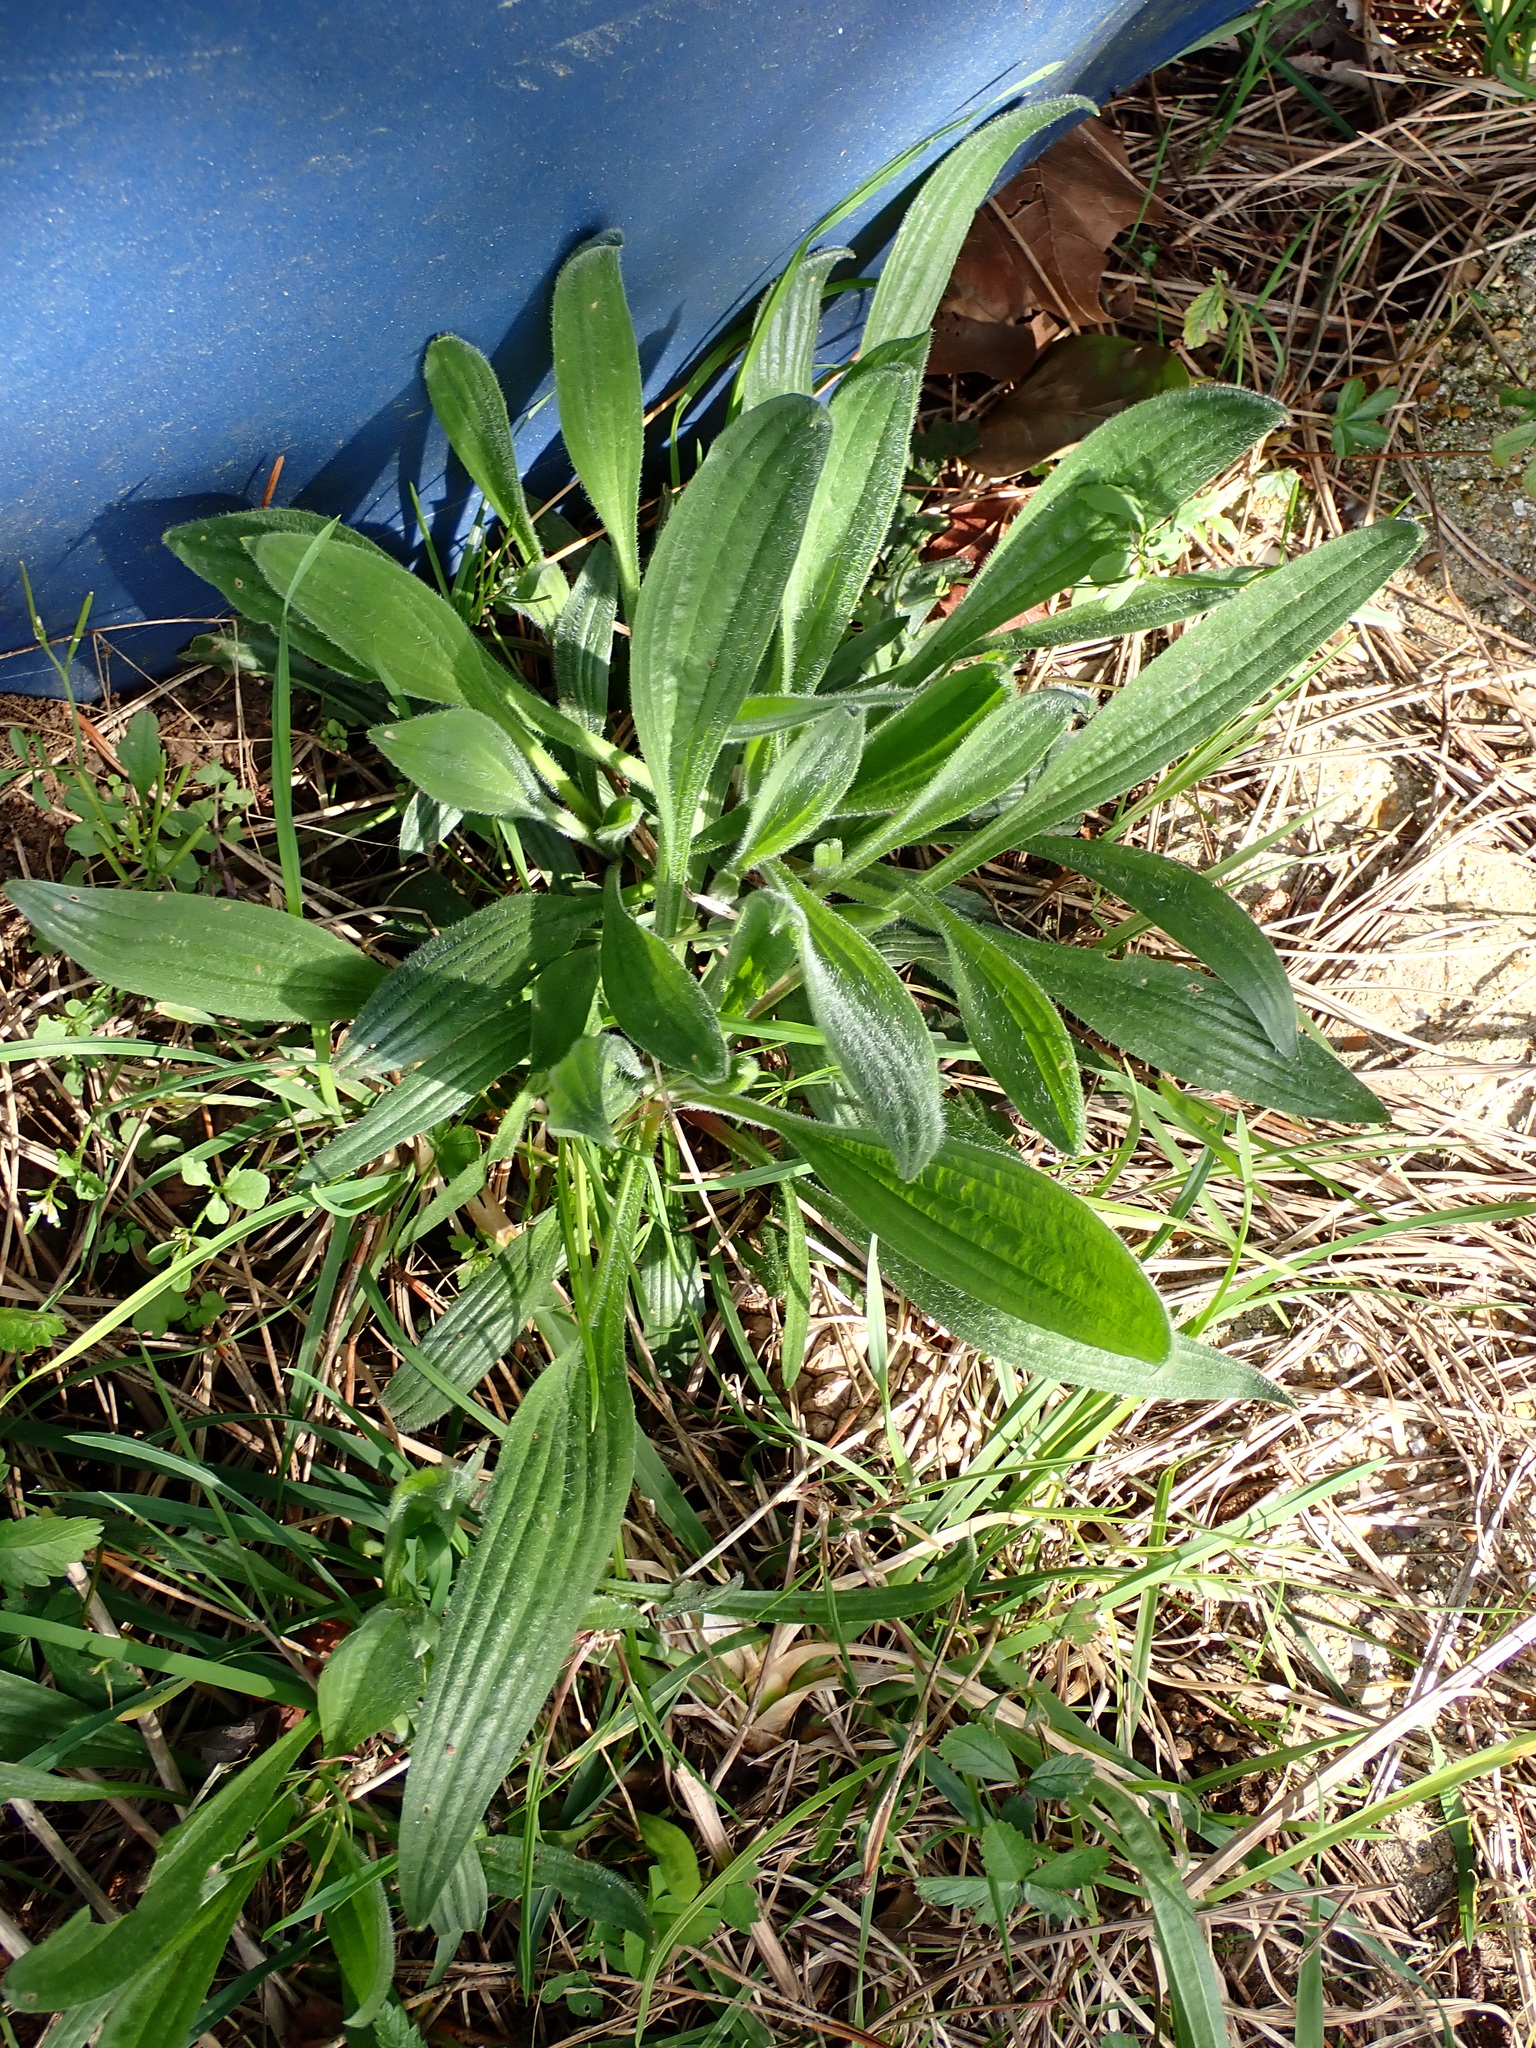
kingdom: Plantae
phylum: Tracheophyta
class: Magnoliopsida
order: Lamiales
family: Plantaginaceae
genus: Plantago
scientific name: Plantago lanceolata
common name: Ribwort plantain
